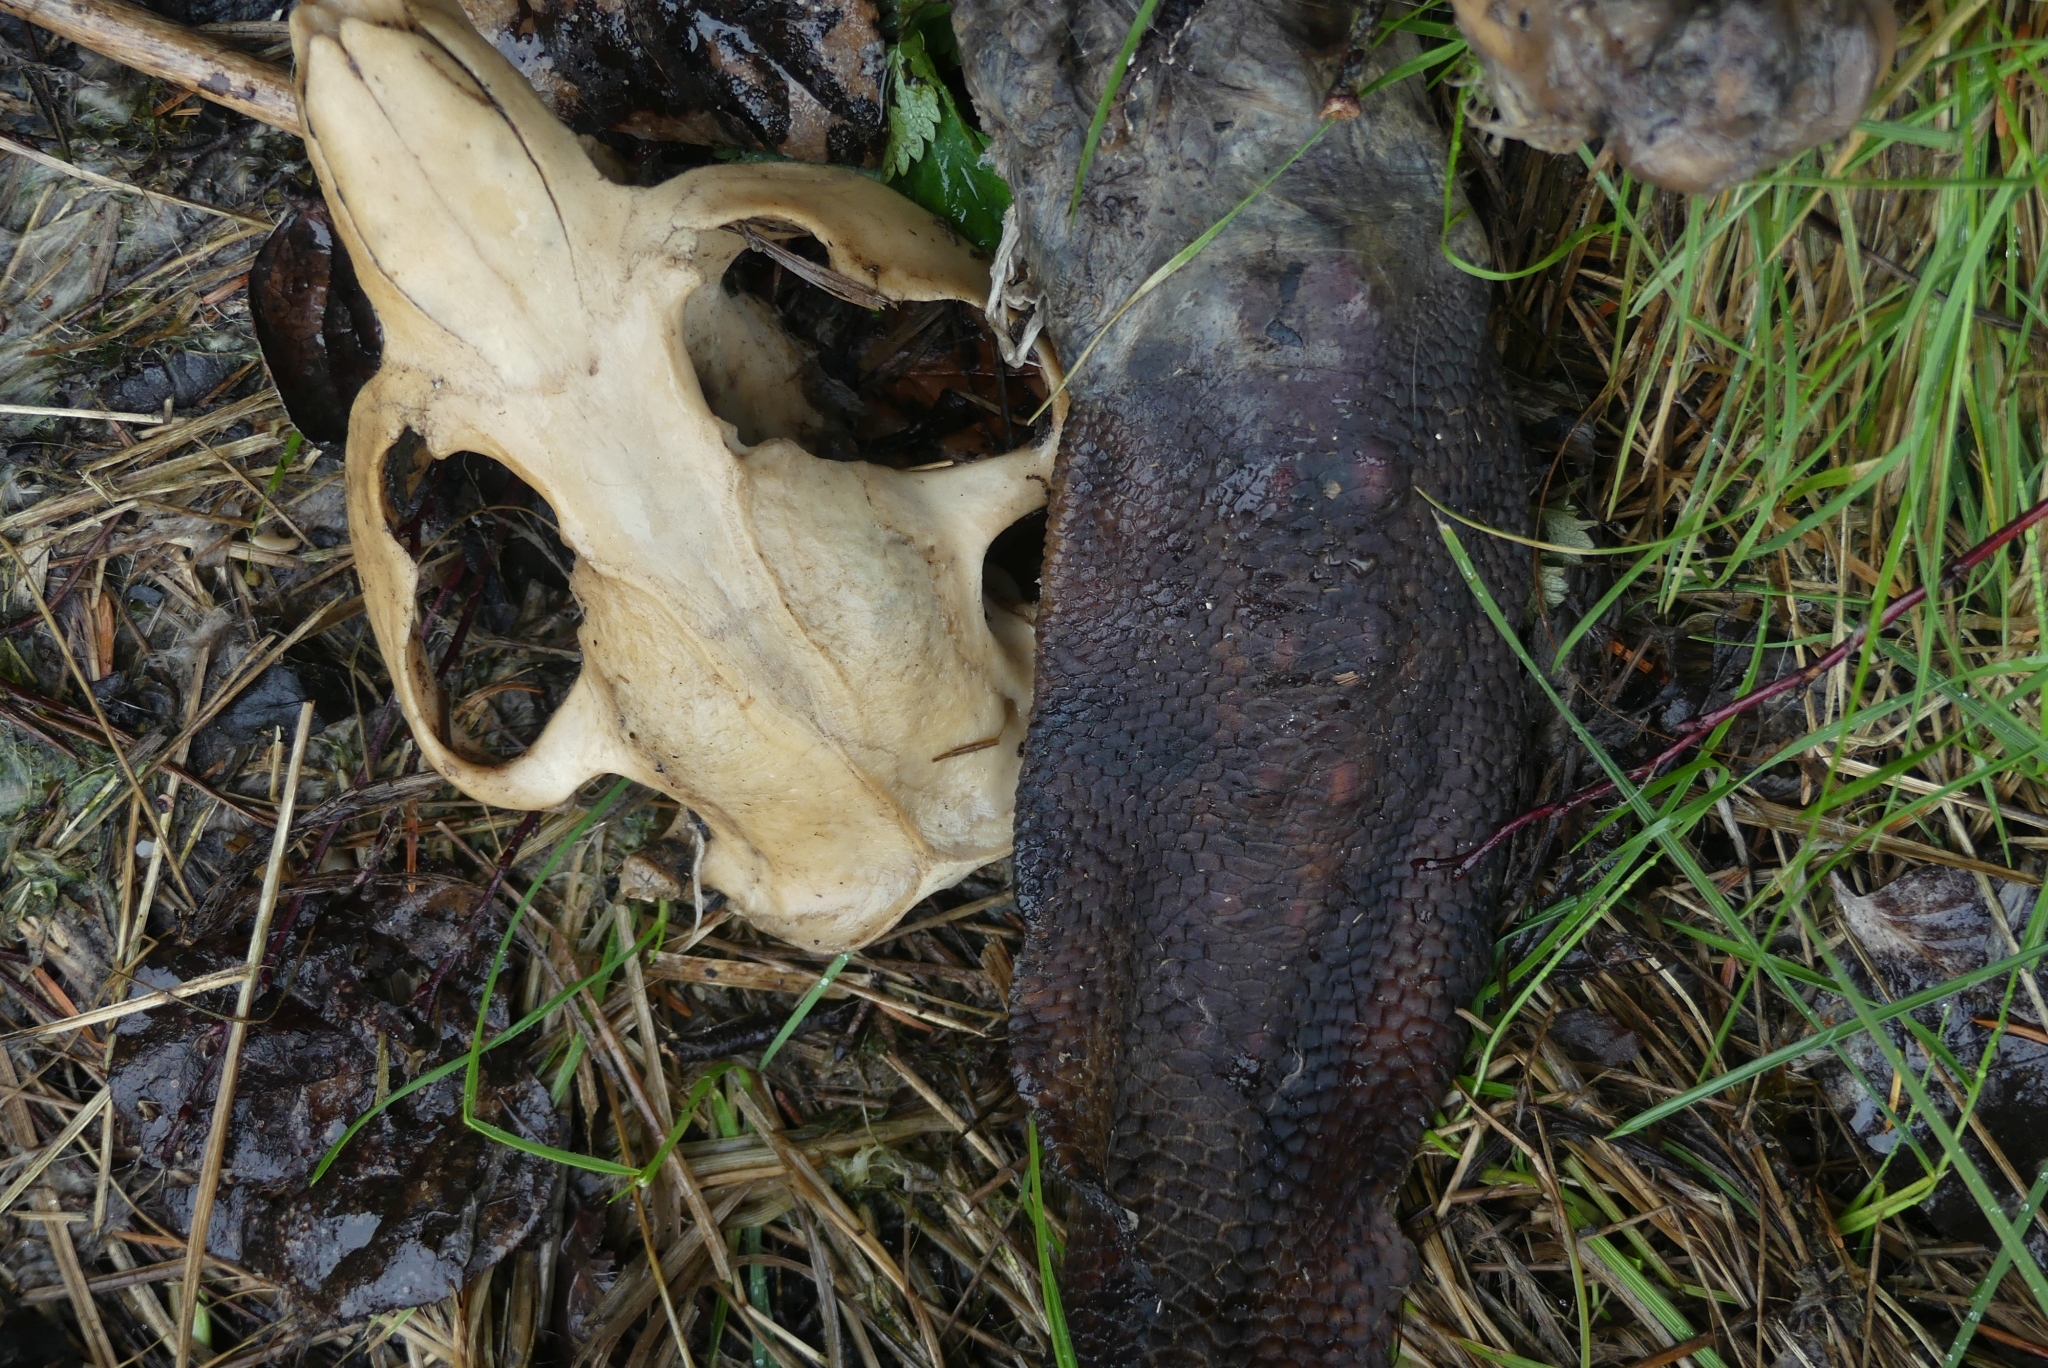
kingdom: Animalia
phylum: Chordata
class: Mammalia
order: Rodentia
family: Castoridae
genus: Castor
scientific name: Castor canadensis
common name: American beaver
